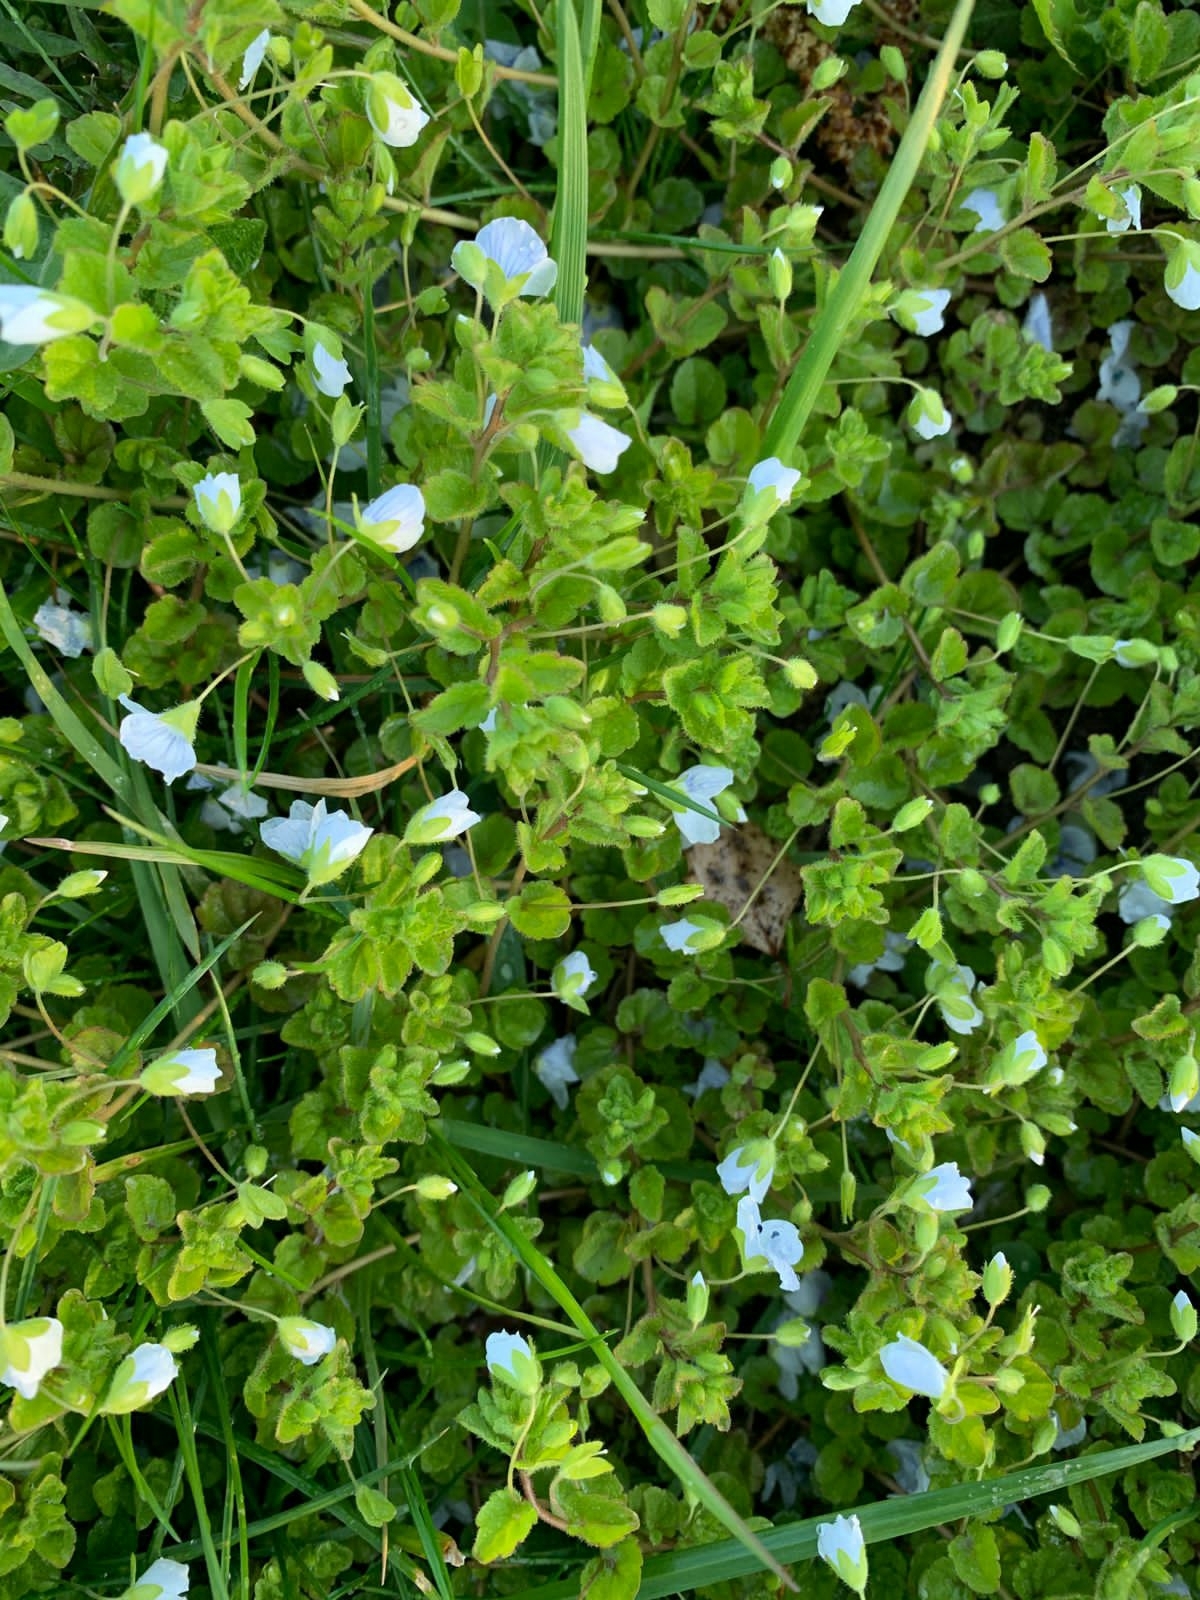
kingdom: Plantae
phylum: Tracheophyta
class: Magnoliopsida
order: Lamiales
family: Plantaginaceae
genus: Veronica
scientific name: Veronica filiformis
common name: Slender speedwell
